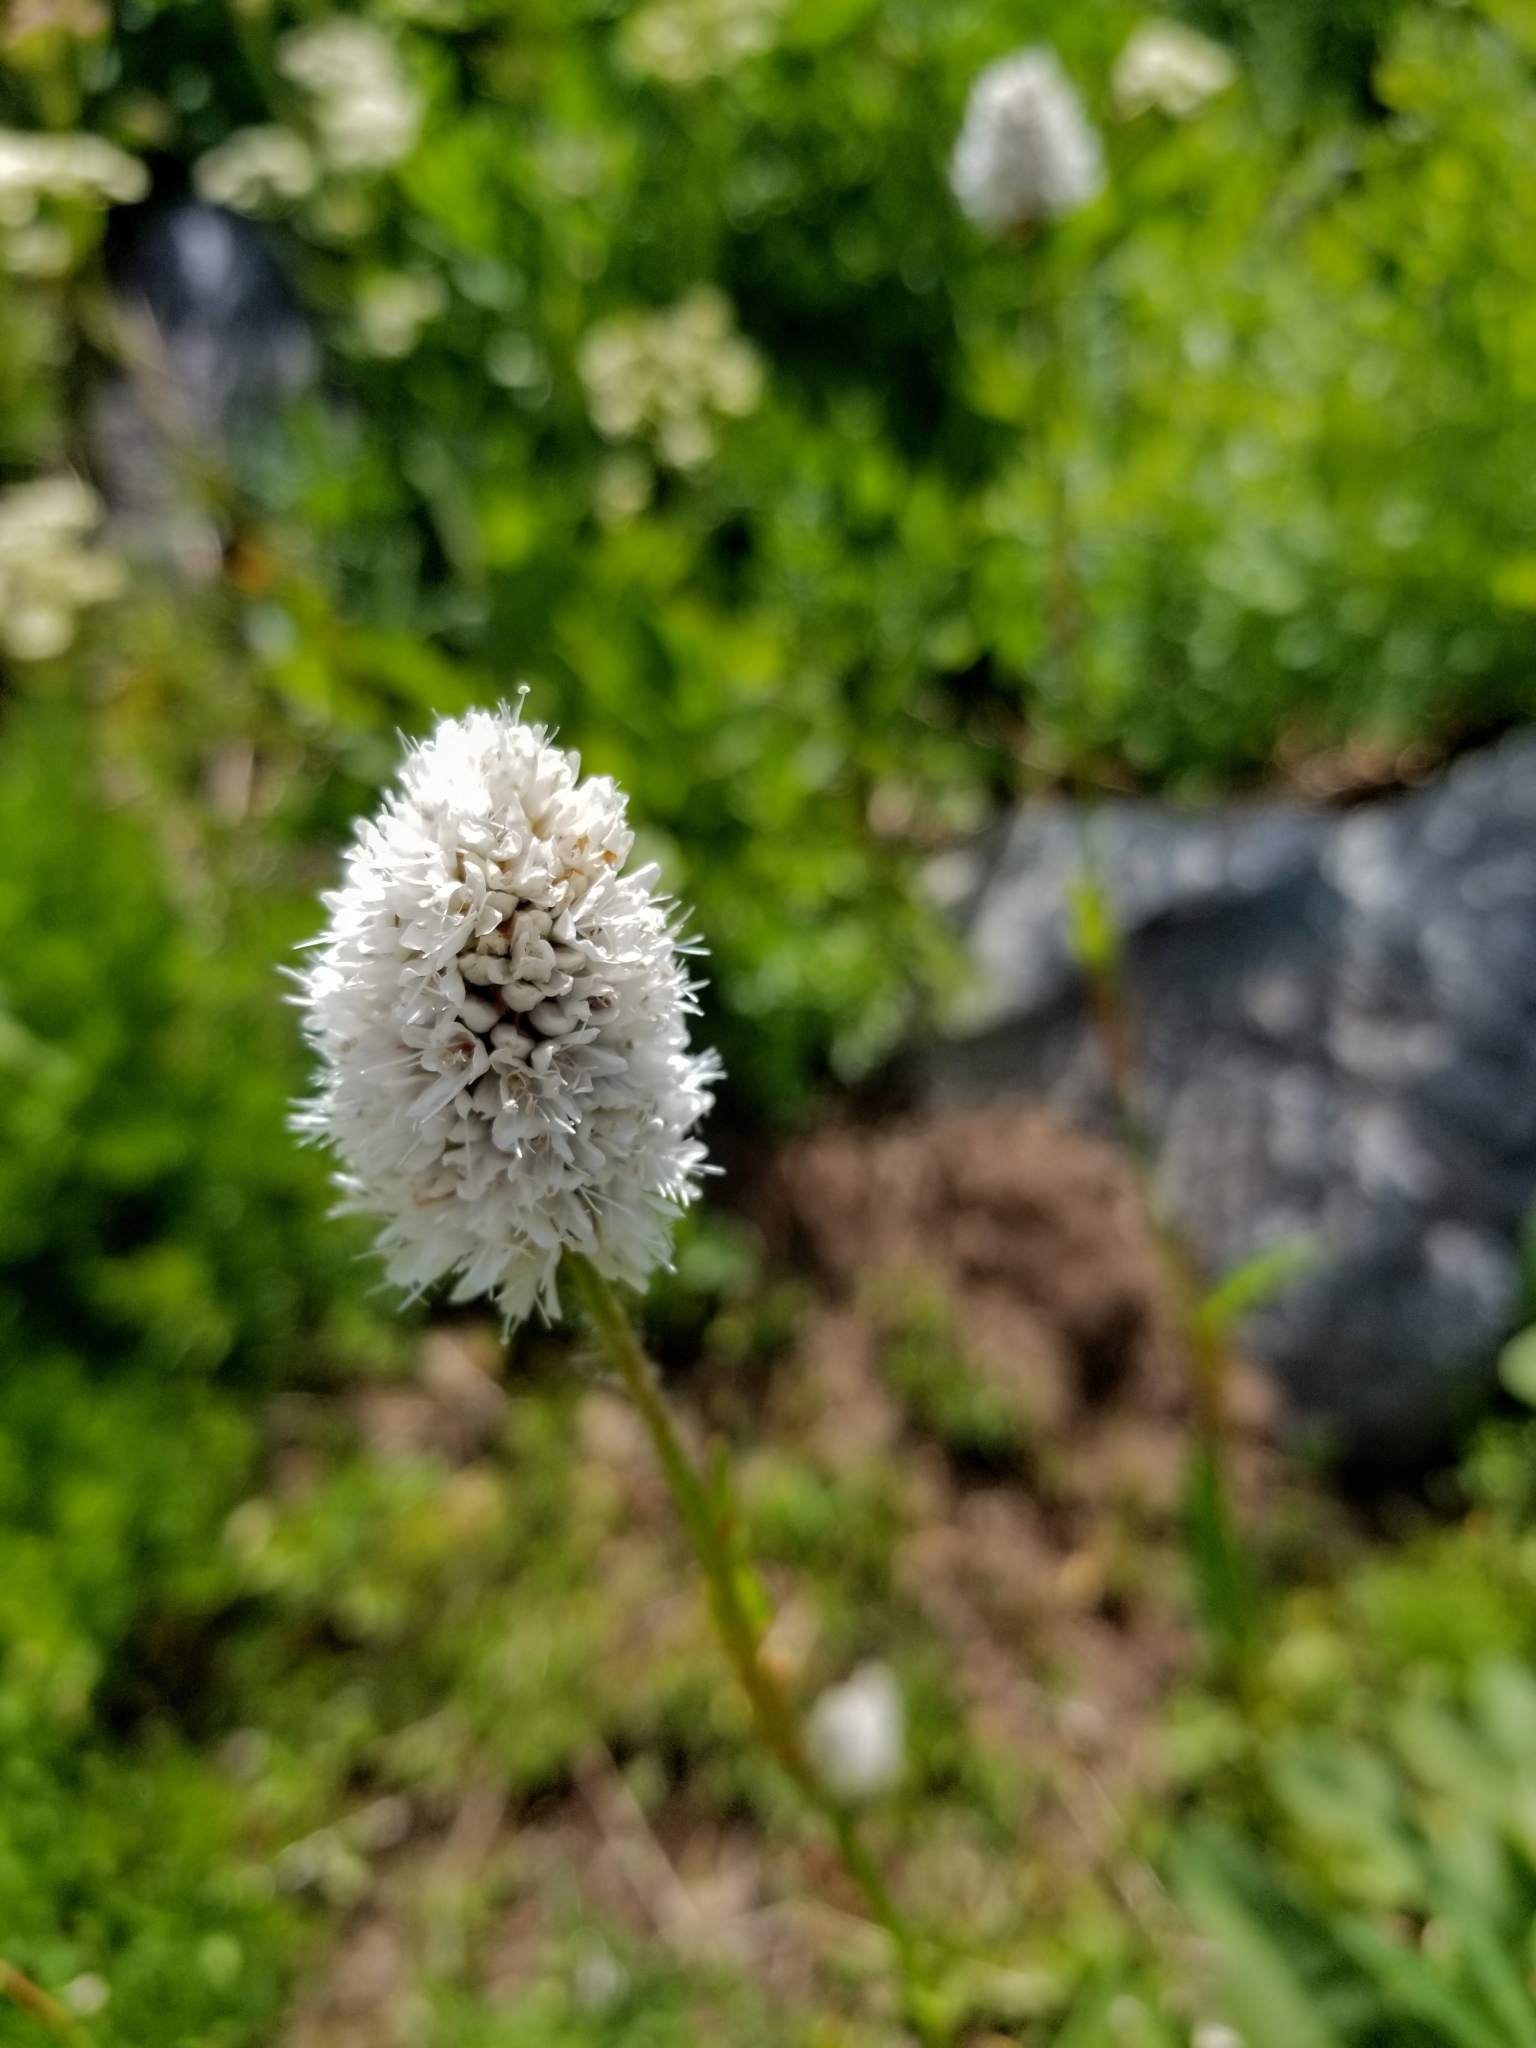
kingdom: Plantae
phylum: Tracheophyta
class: Magnoliopsida
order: Caryophyllales
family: Polygonaceae
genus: Bistorta
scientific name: Bistorta bistortoides
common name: American bistort
